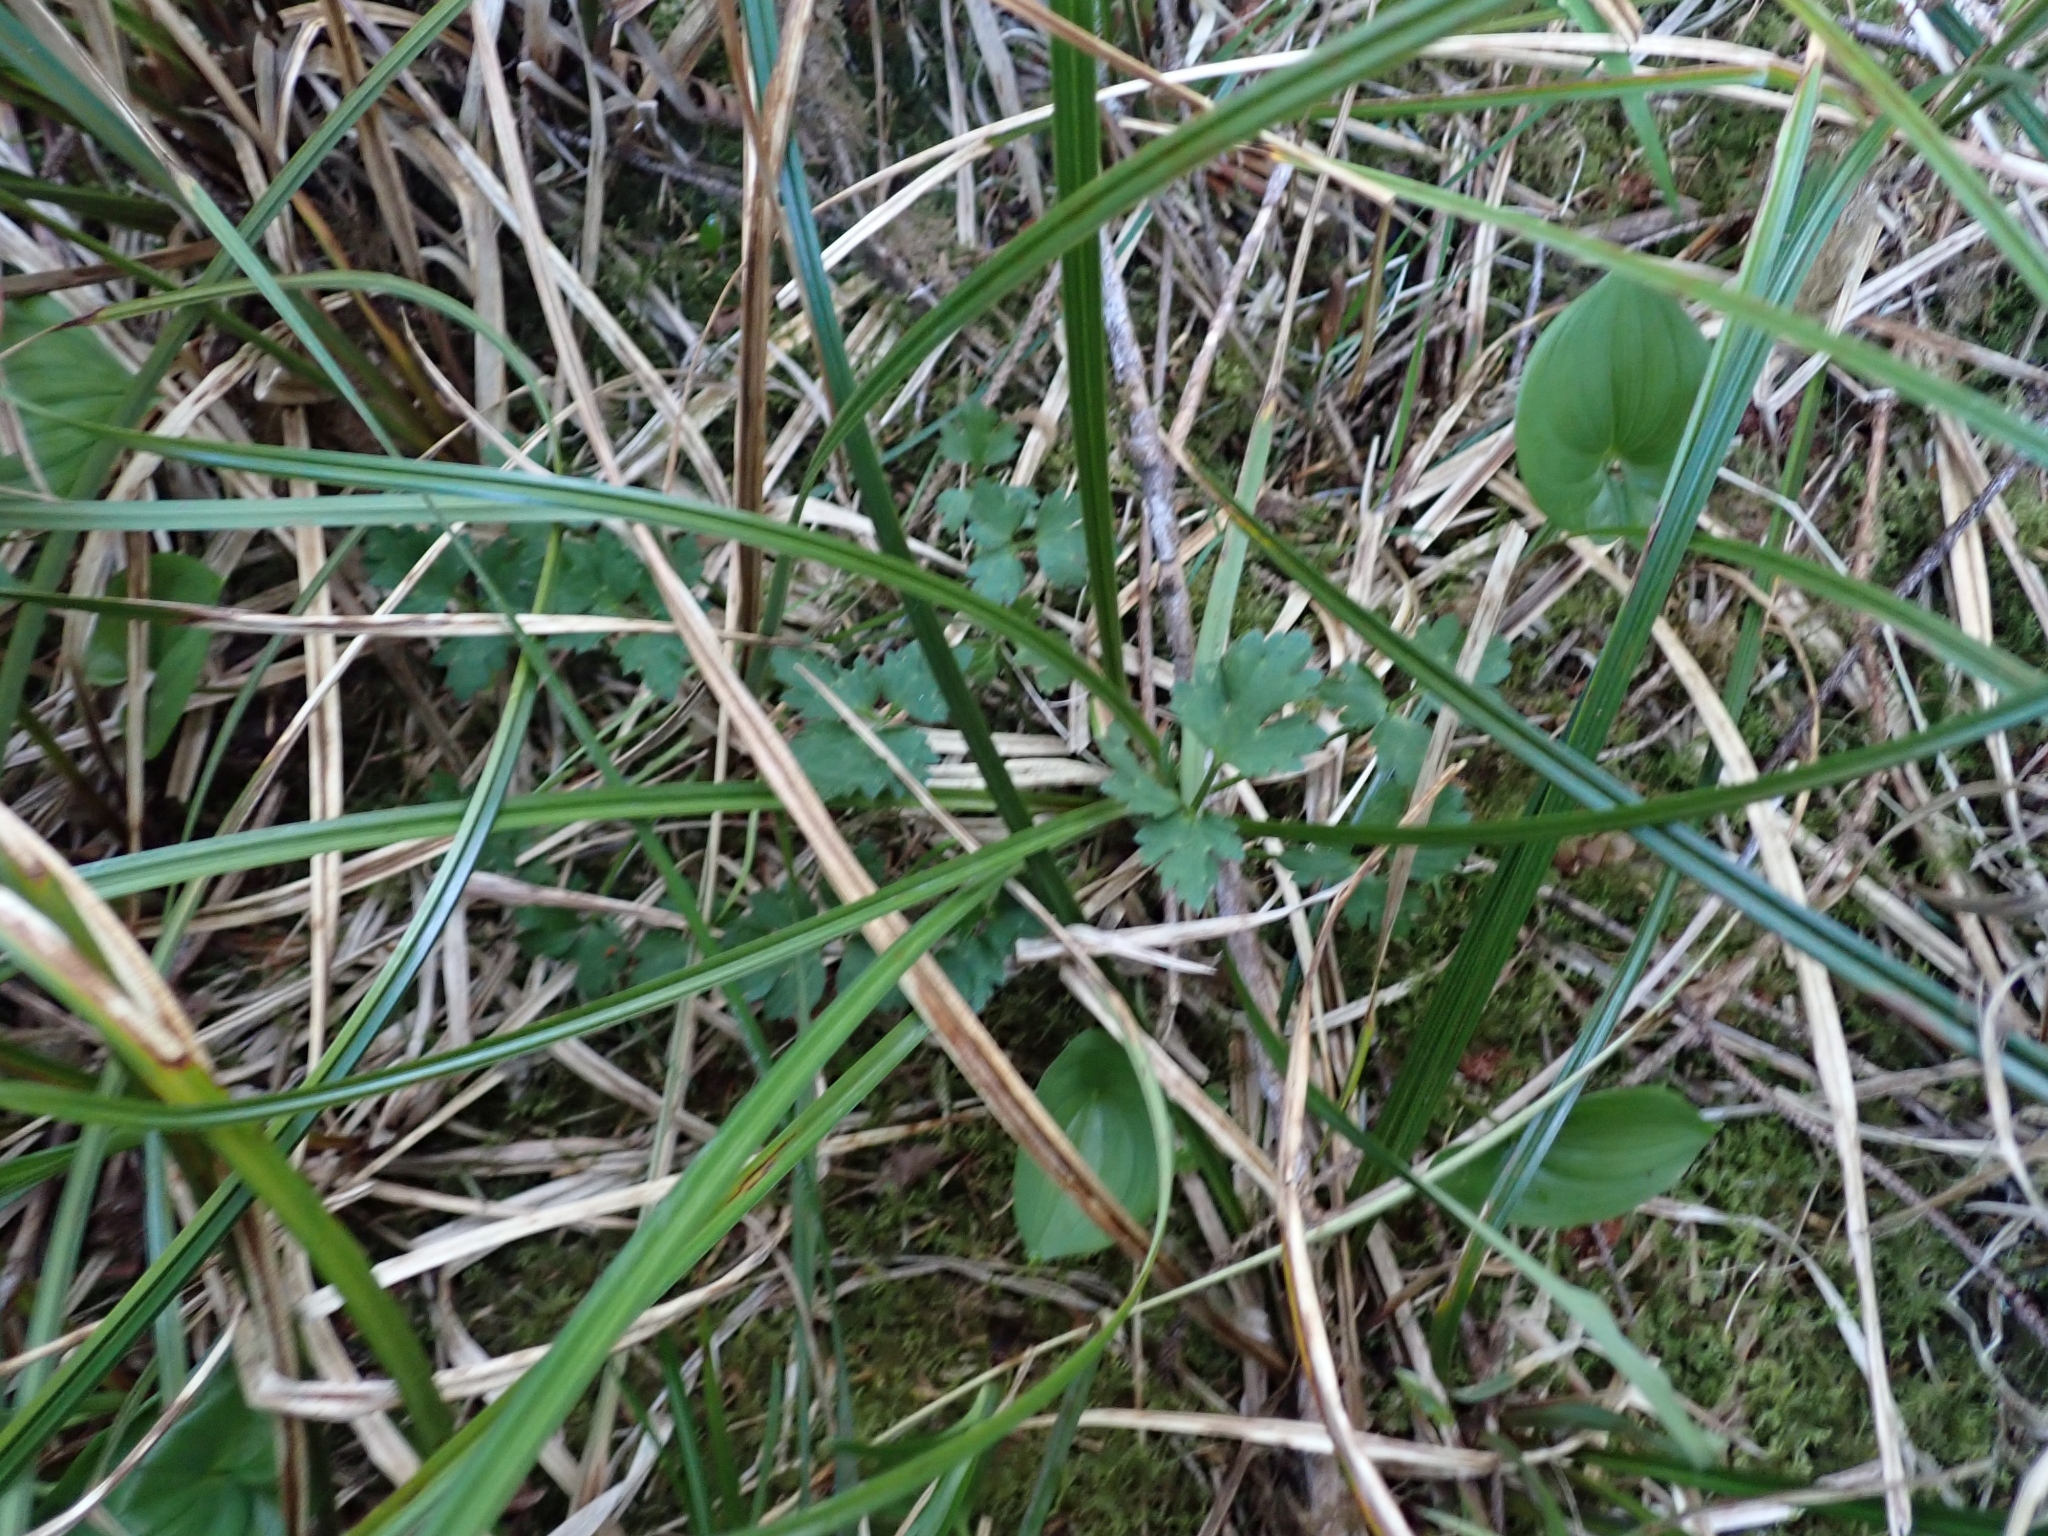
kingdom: Plantae
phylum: Tracheophyta
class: Magnoliopsida
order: Ranunculales
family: Ranunculaceae
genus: Ranunculus
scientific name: Ranunculus repens
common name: Creeping buttercup
